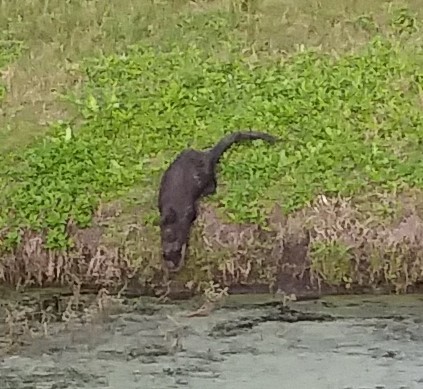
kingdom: Animalia
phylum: Chordata
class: Mammalia
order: Carnivora
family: Mustelidae
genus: Lontra
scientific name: Lontra canadensis
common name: North american river otter
